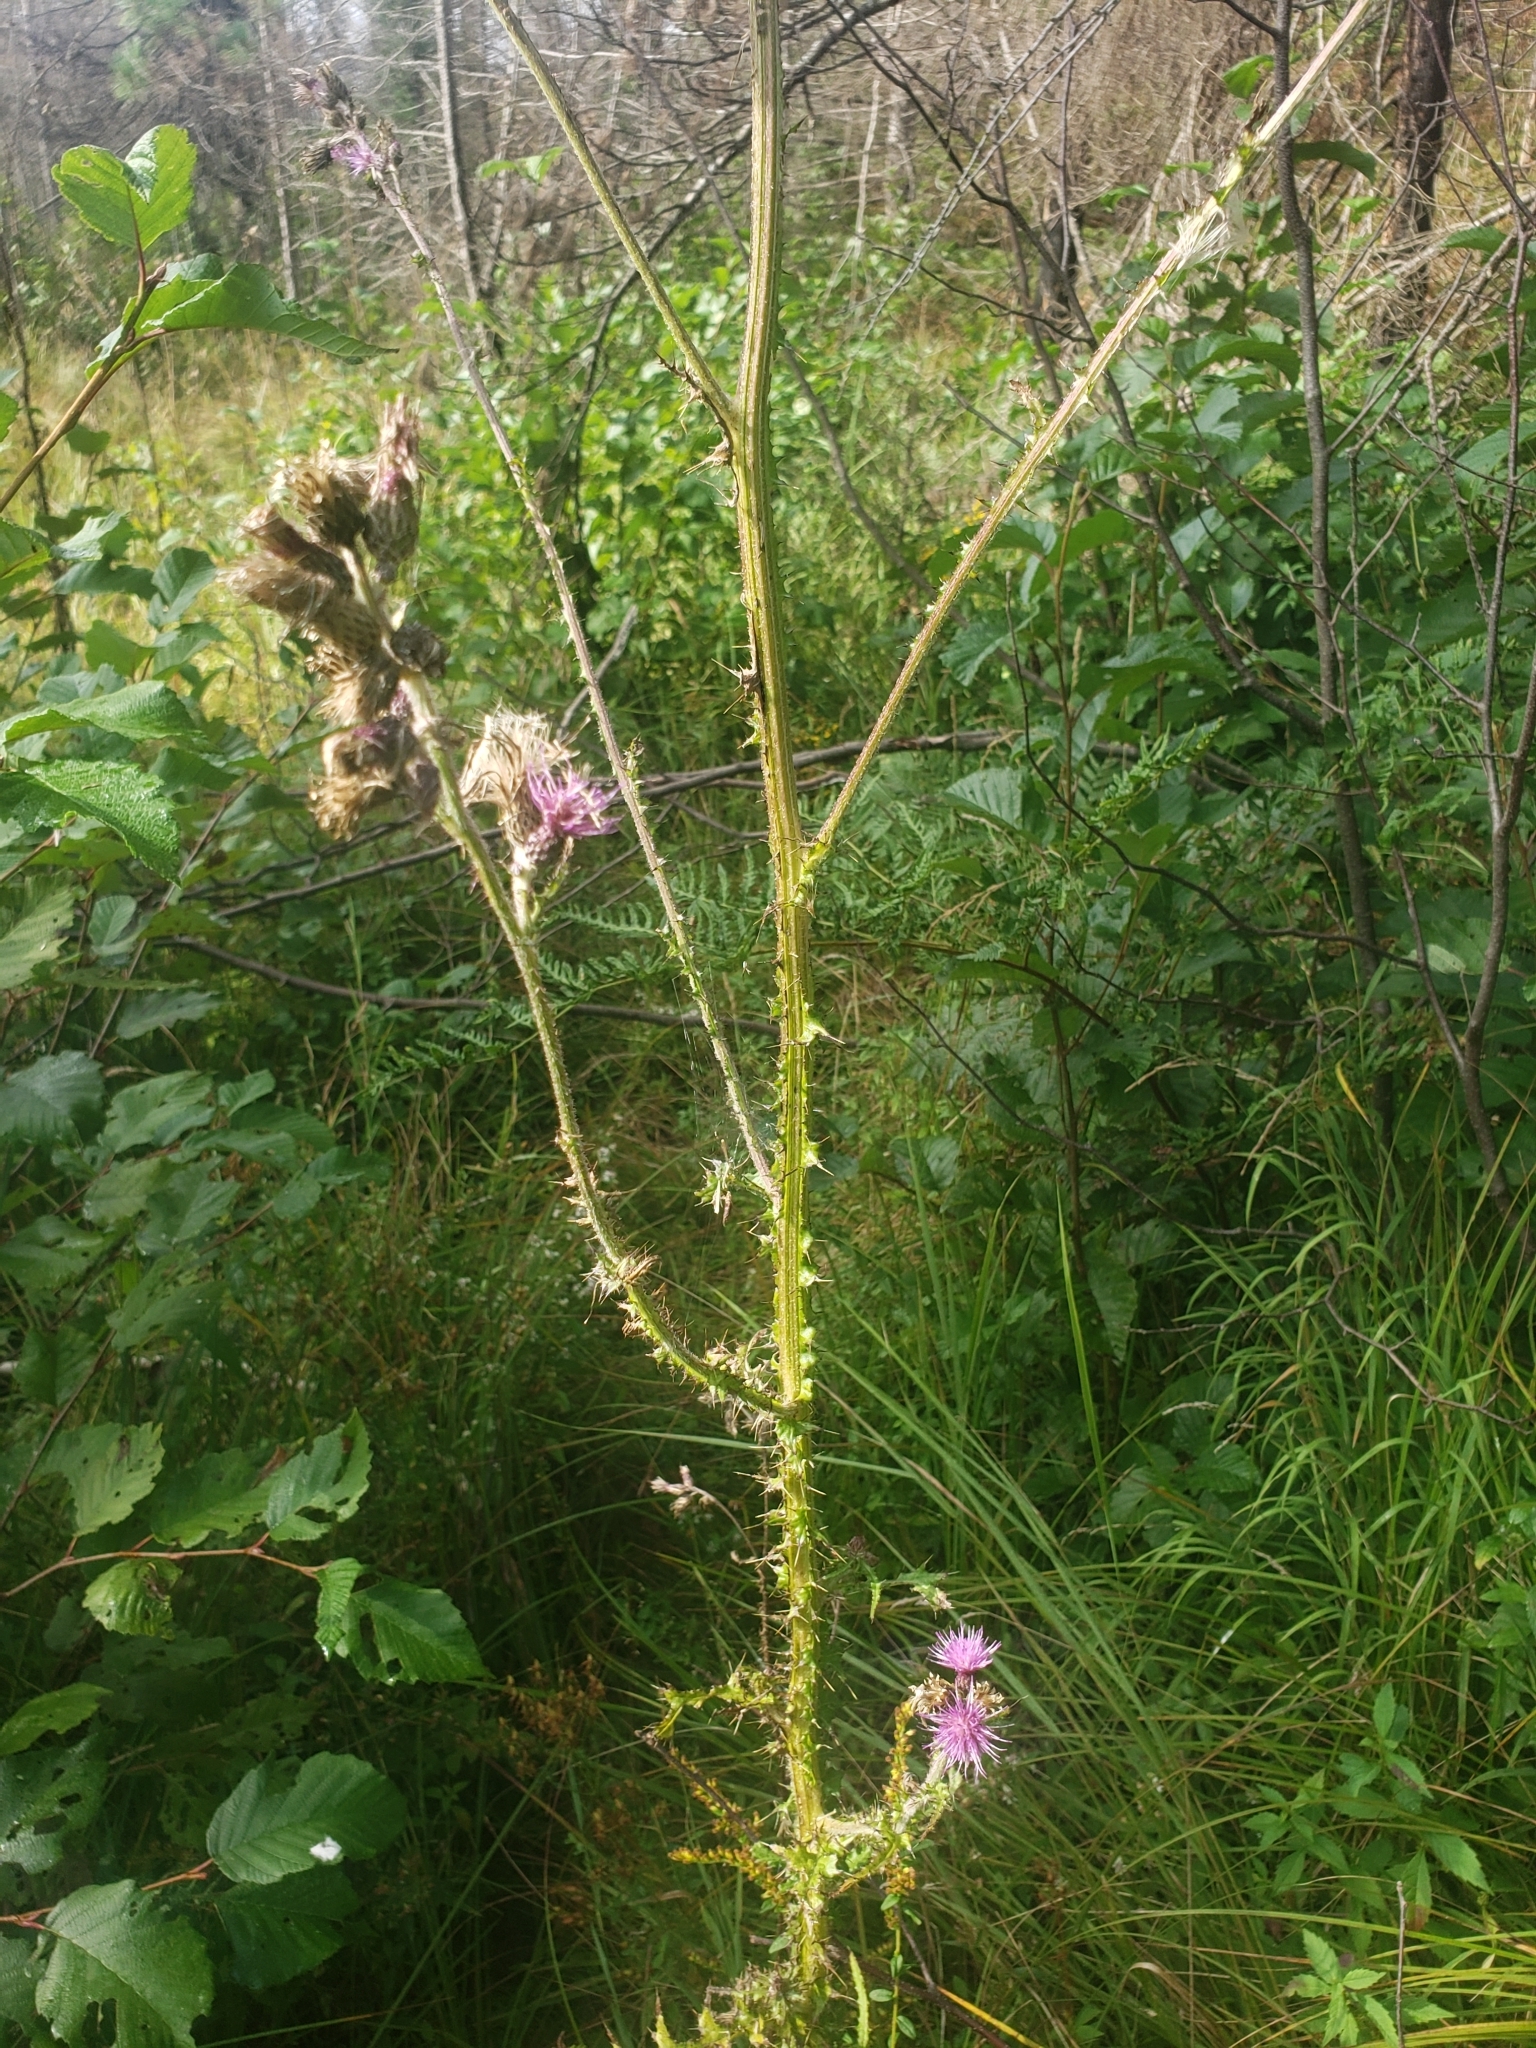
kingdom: Plantae
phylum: Tracheophyta
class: Magnoliopsida
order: Asterales
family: Asteraceae
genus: Cirsium
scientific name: Cirsium palustre
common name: Marsh thistle
